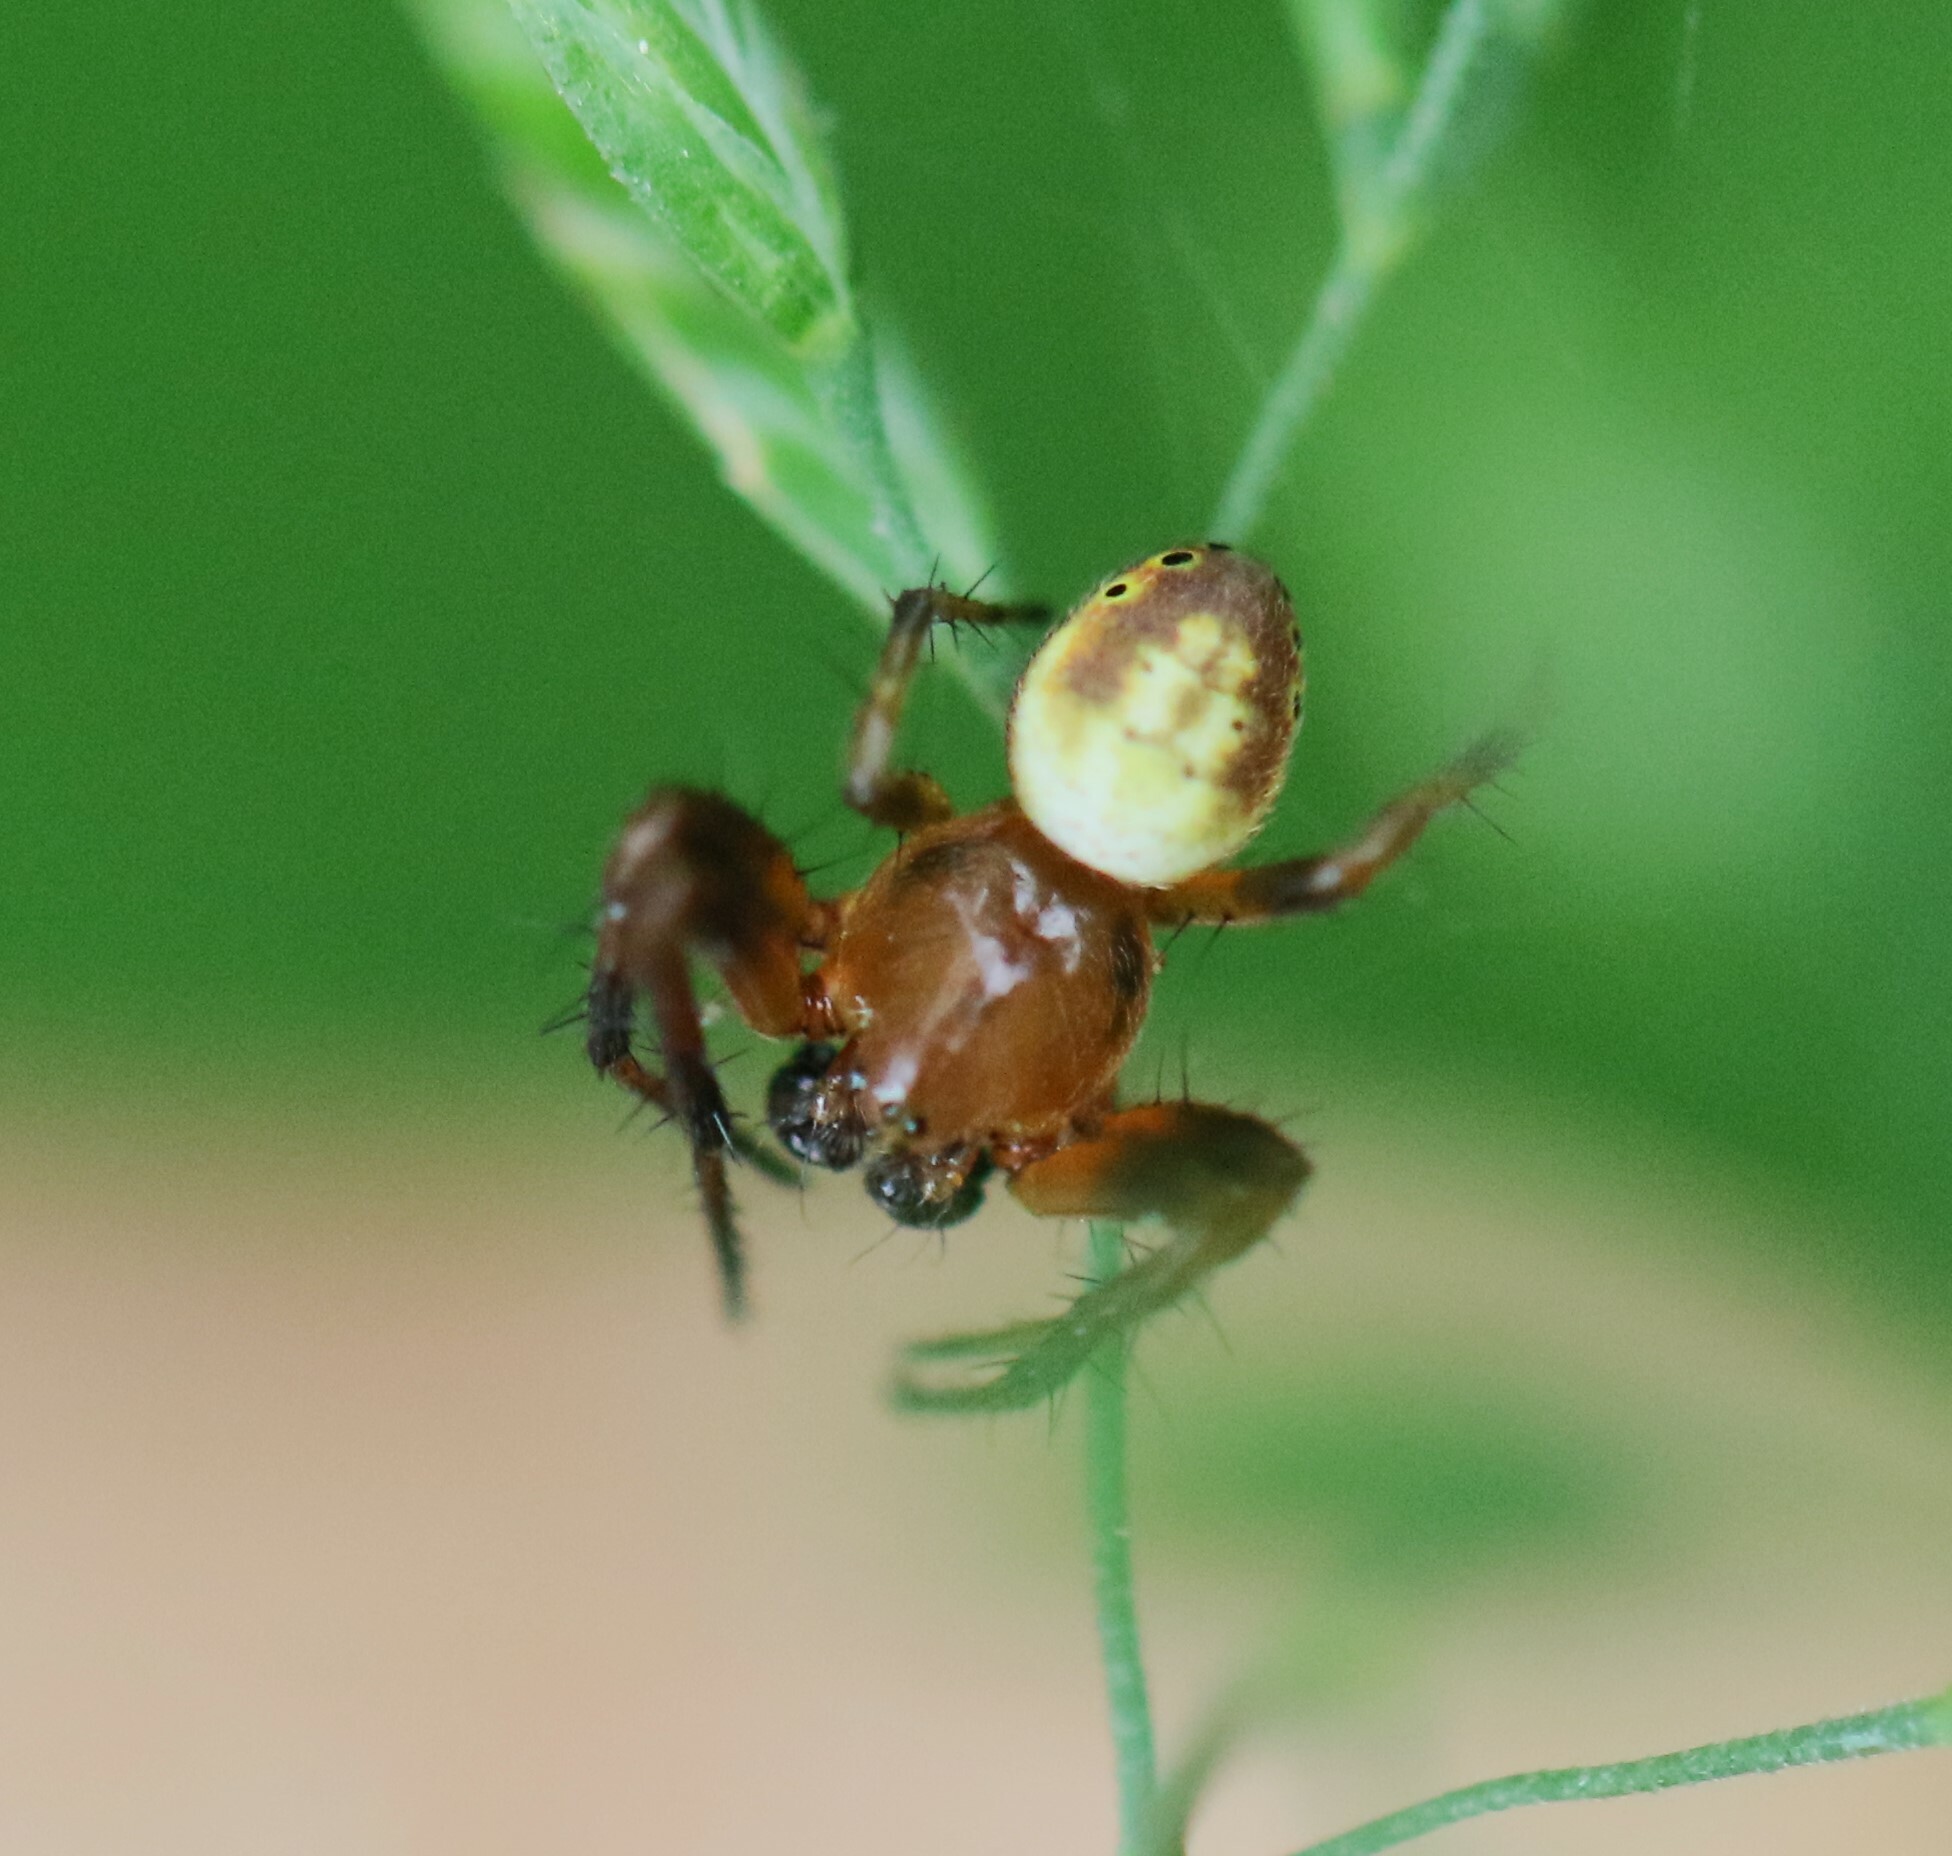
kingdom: Animalia
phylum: Arthropoda
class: Arachnida
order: Araneae
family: Araneidae
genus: Araniella
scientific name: Araniella displicata
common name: Sixspotted orb weaver
